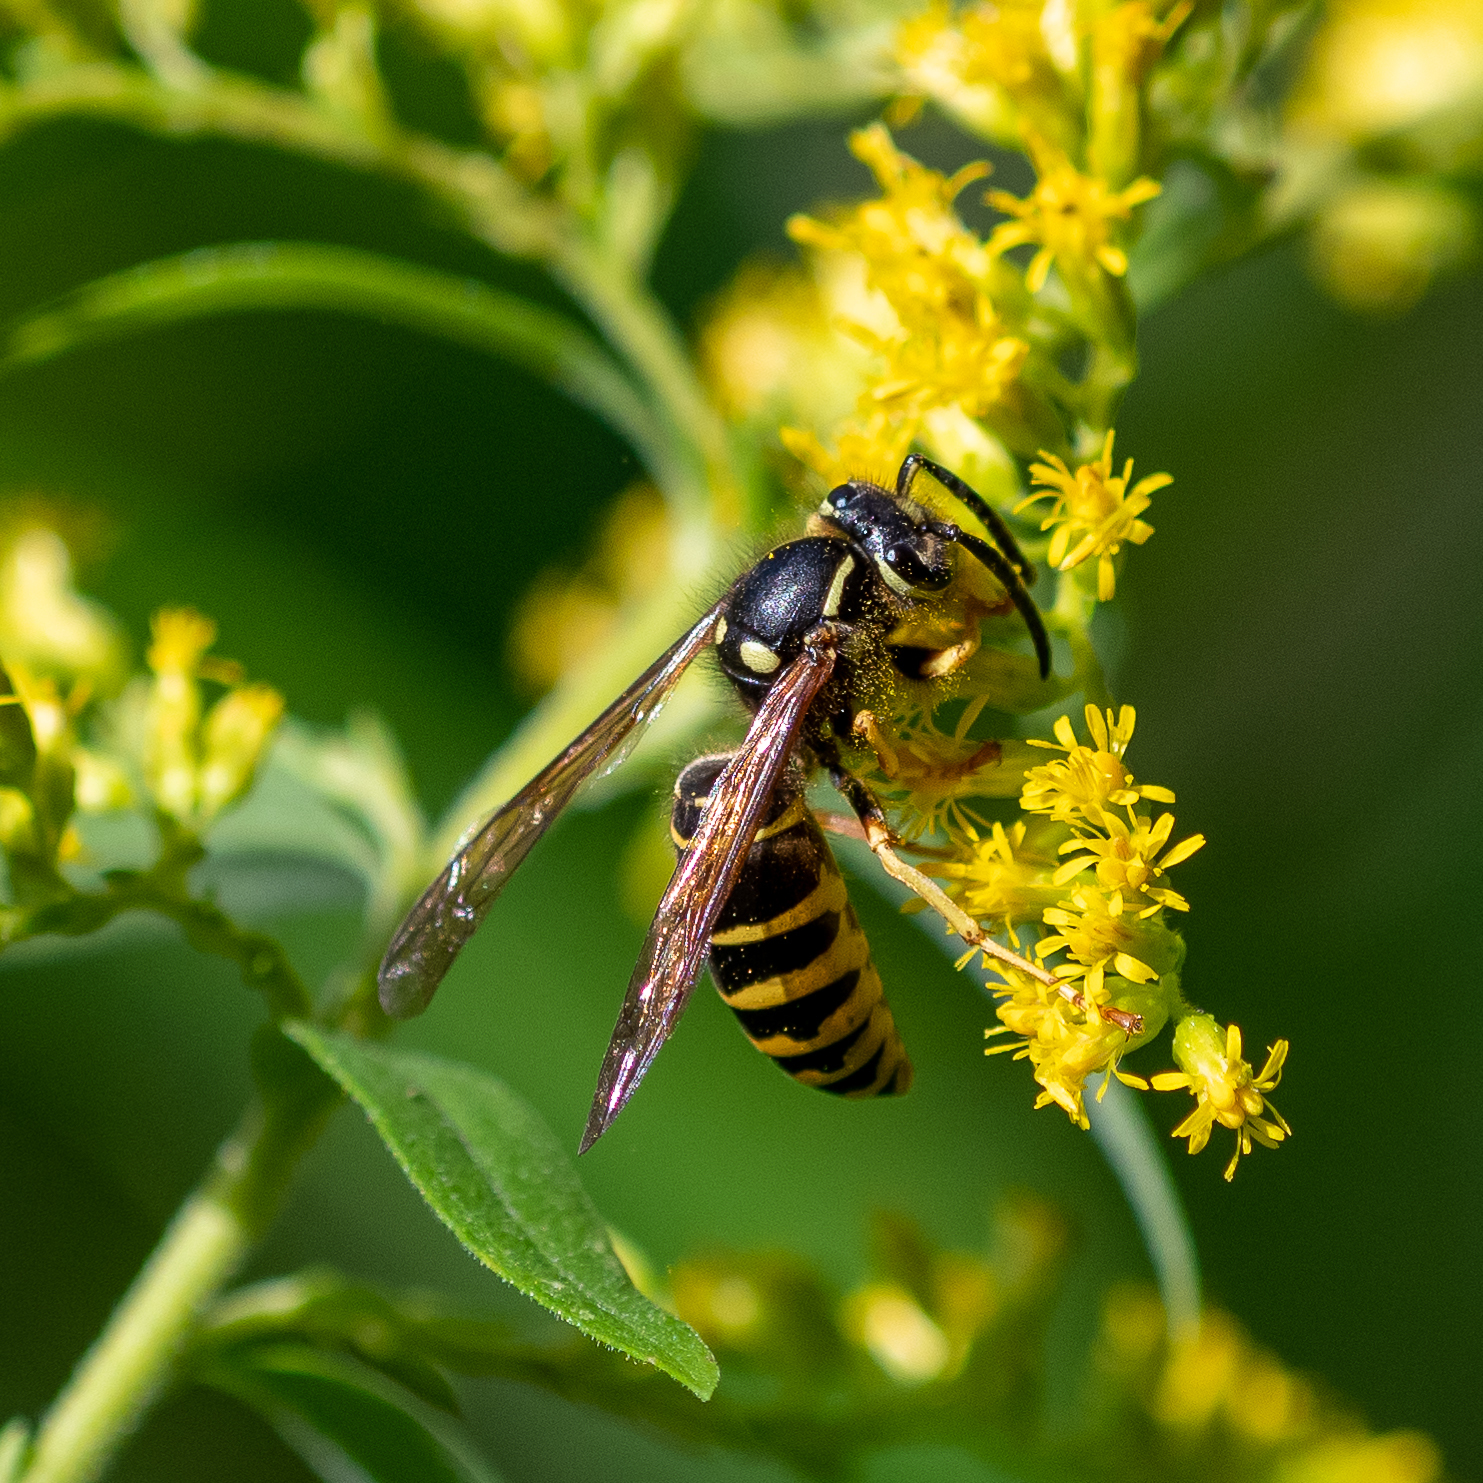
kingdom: Animalia
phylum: Arthropoda
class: Insecta
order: Hymenoptera
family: Vespidae
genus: Vespula
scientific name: Vespula vidua
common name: Widow yellowjacket
